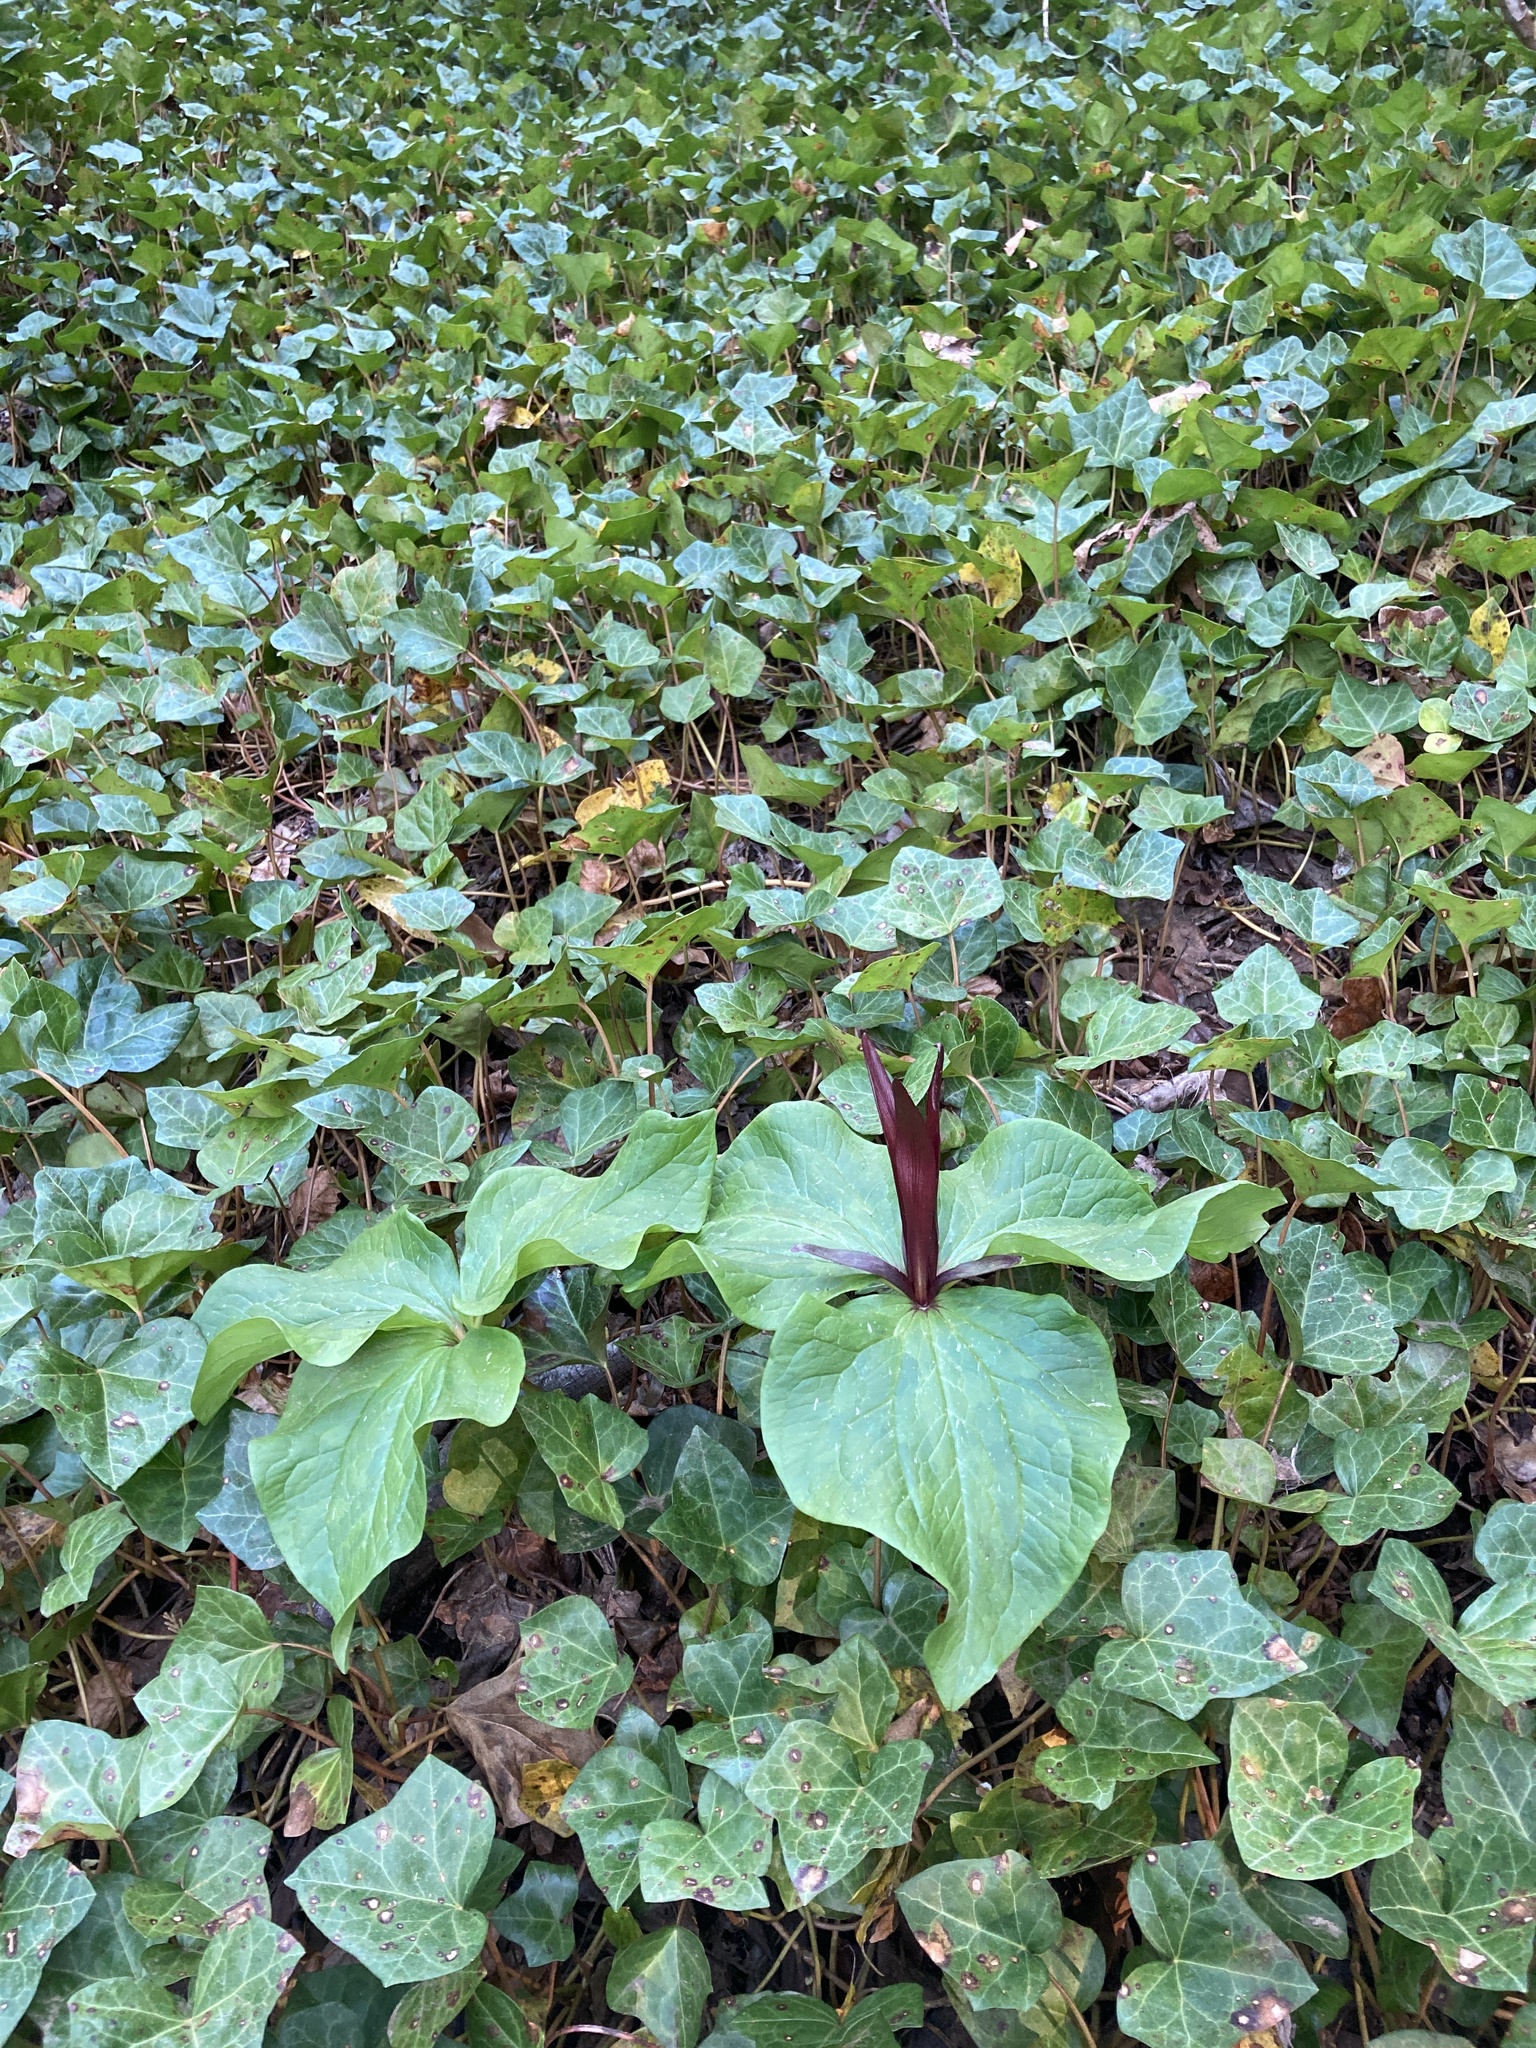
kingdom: Plantae
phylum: Tracheophyta
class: Liliopsida
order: Liliales
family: Melanthiaceae
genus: Trillium
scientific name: Trillium angustipetalum
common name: Narrow-petaled trillium
